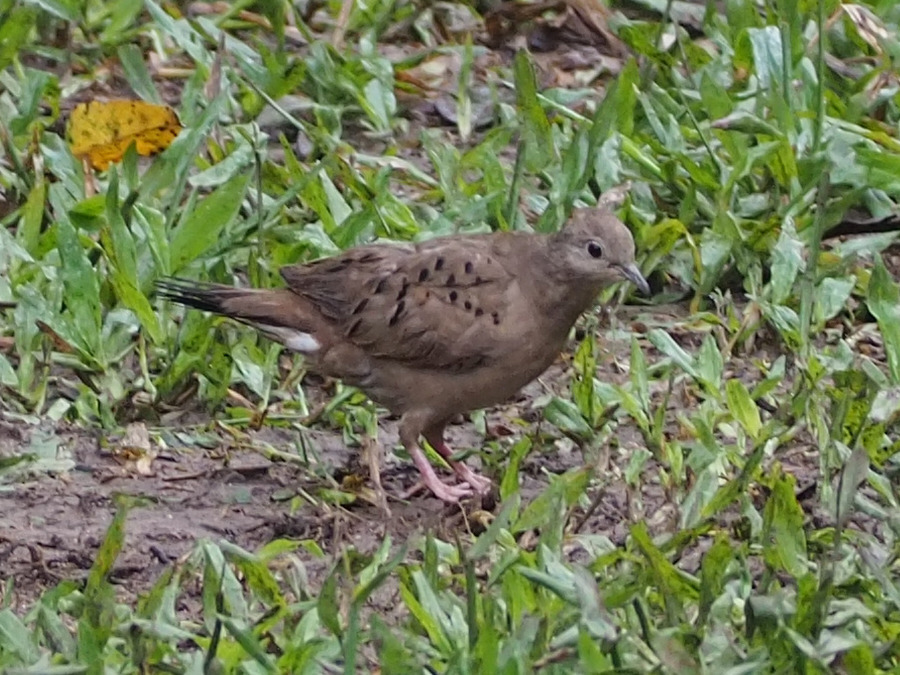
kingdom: Animalia
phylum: Chordata
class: Aves
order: Columbiformes
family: Columbidae
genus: Columbina
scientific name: Columbina talpacoti
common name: Ruddy ground dove
